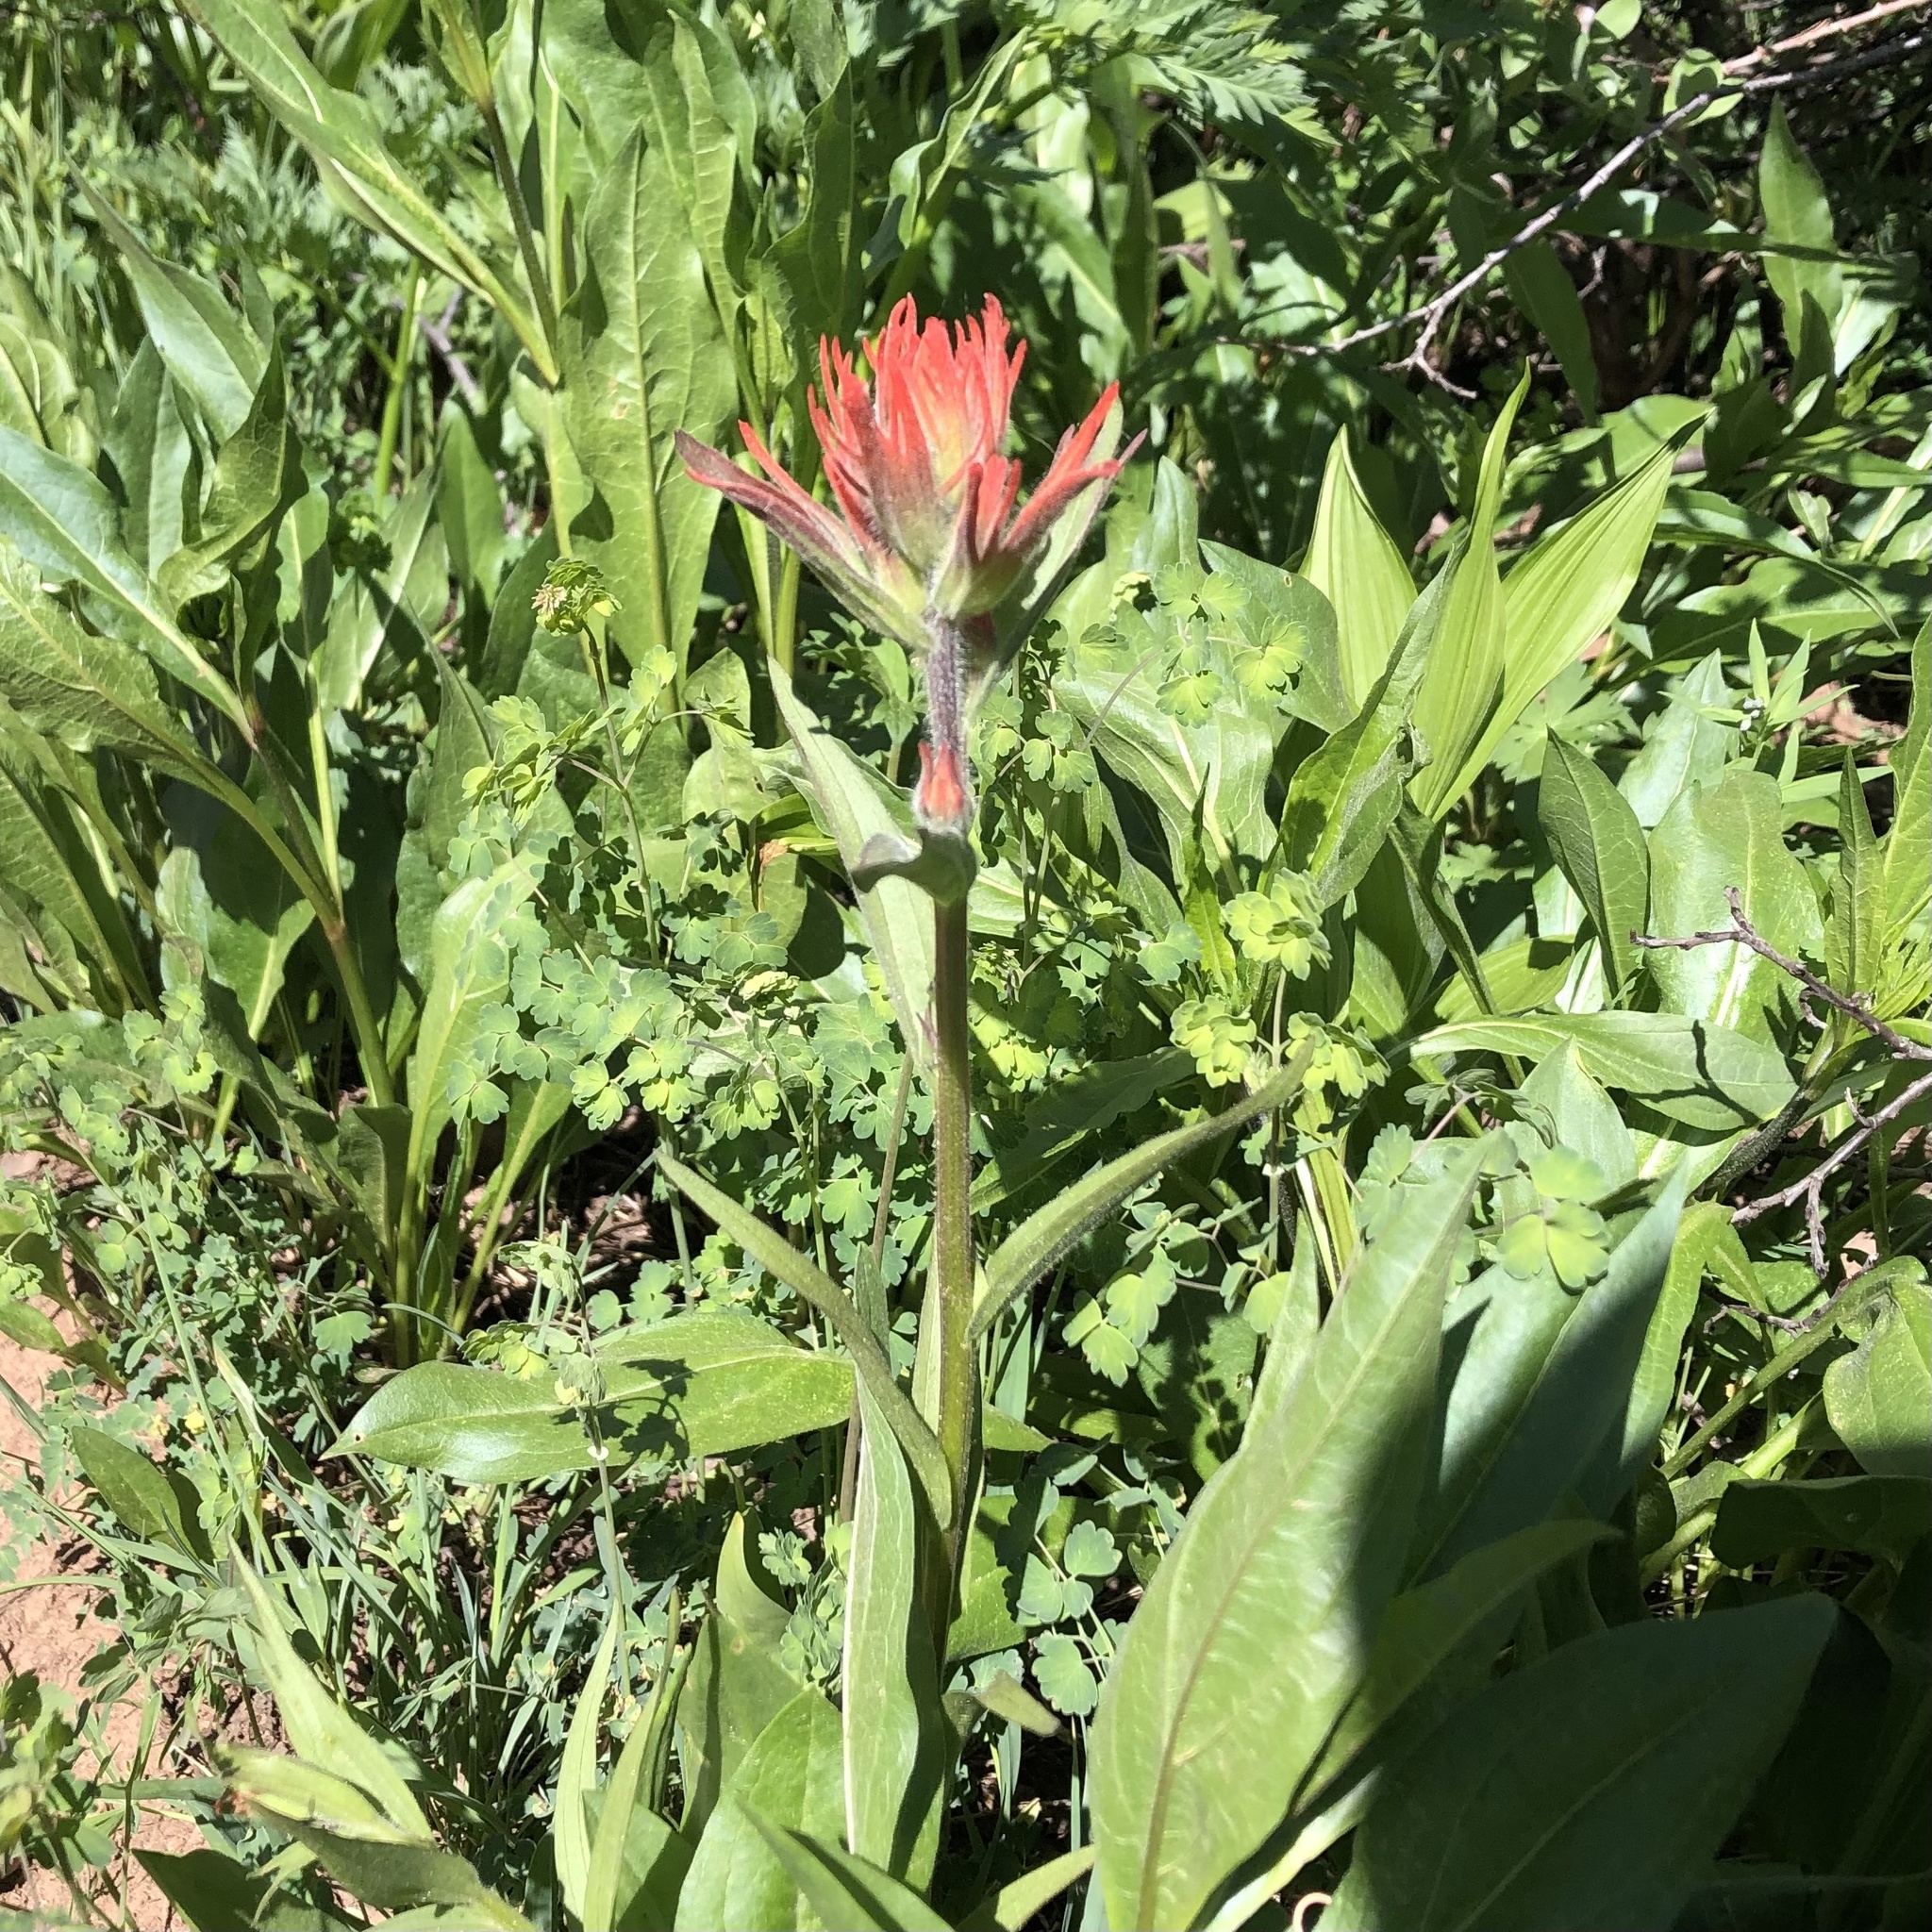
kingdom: Plantae
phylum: Tracheophyta
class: Magnoliopsida
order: Lamiales
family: Orobanchaceae
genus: Castilleja
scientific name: Castilleja miniata
